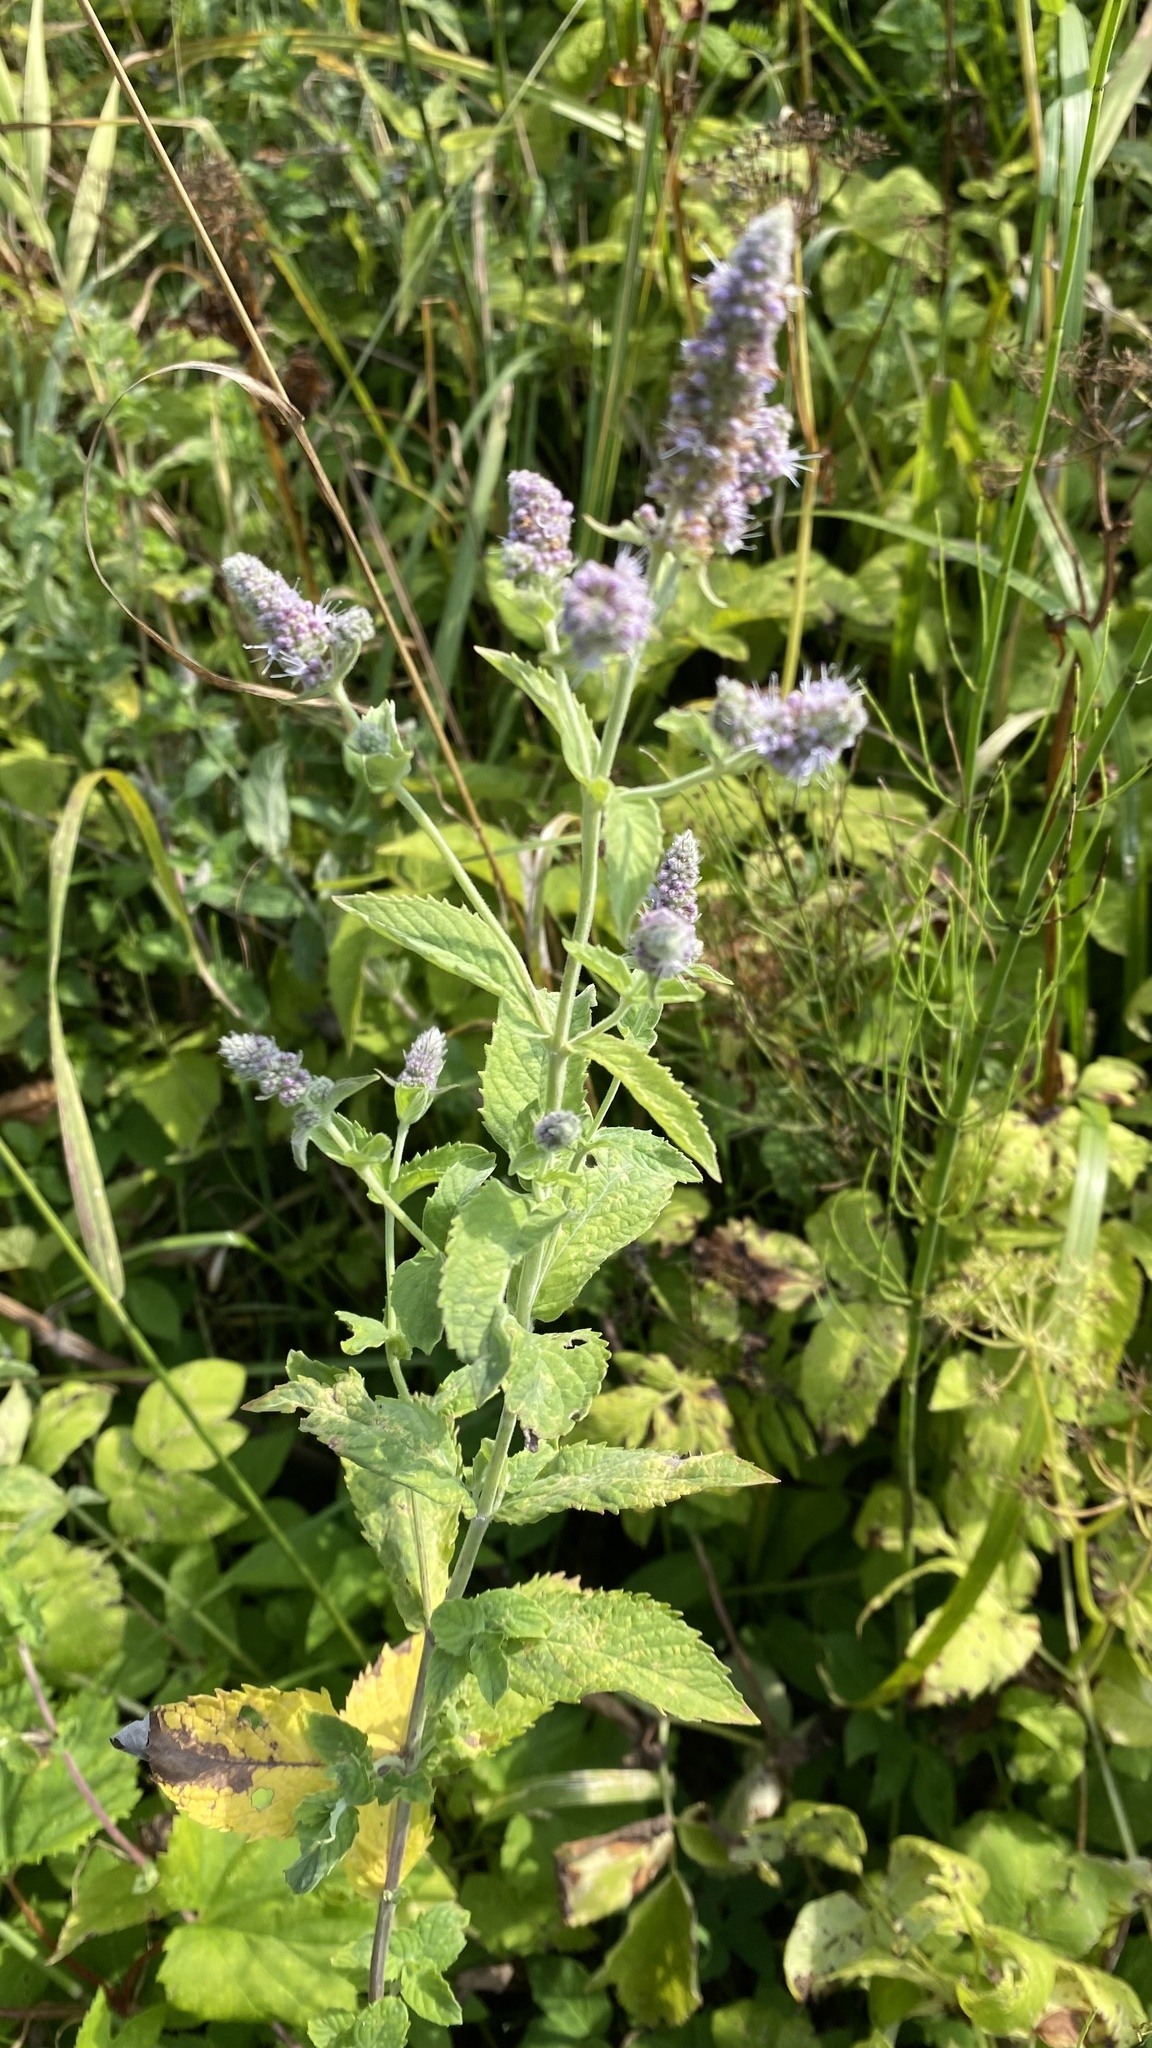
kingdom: Plantae
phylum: Tracheophyta
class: Magnoliopsida
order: Lamiales
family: Lamiaceae
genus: Mentha
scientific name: Mentha longifolia
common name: Horse mint
